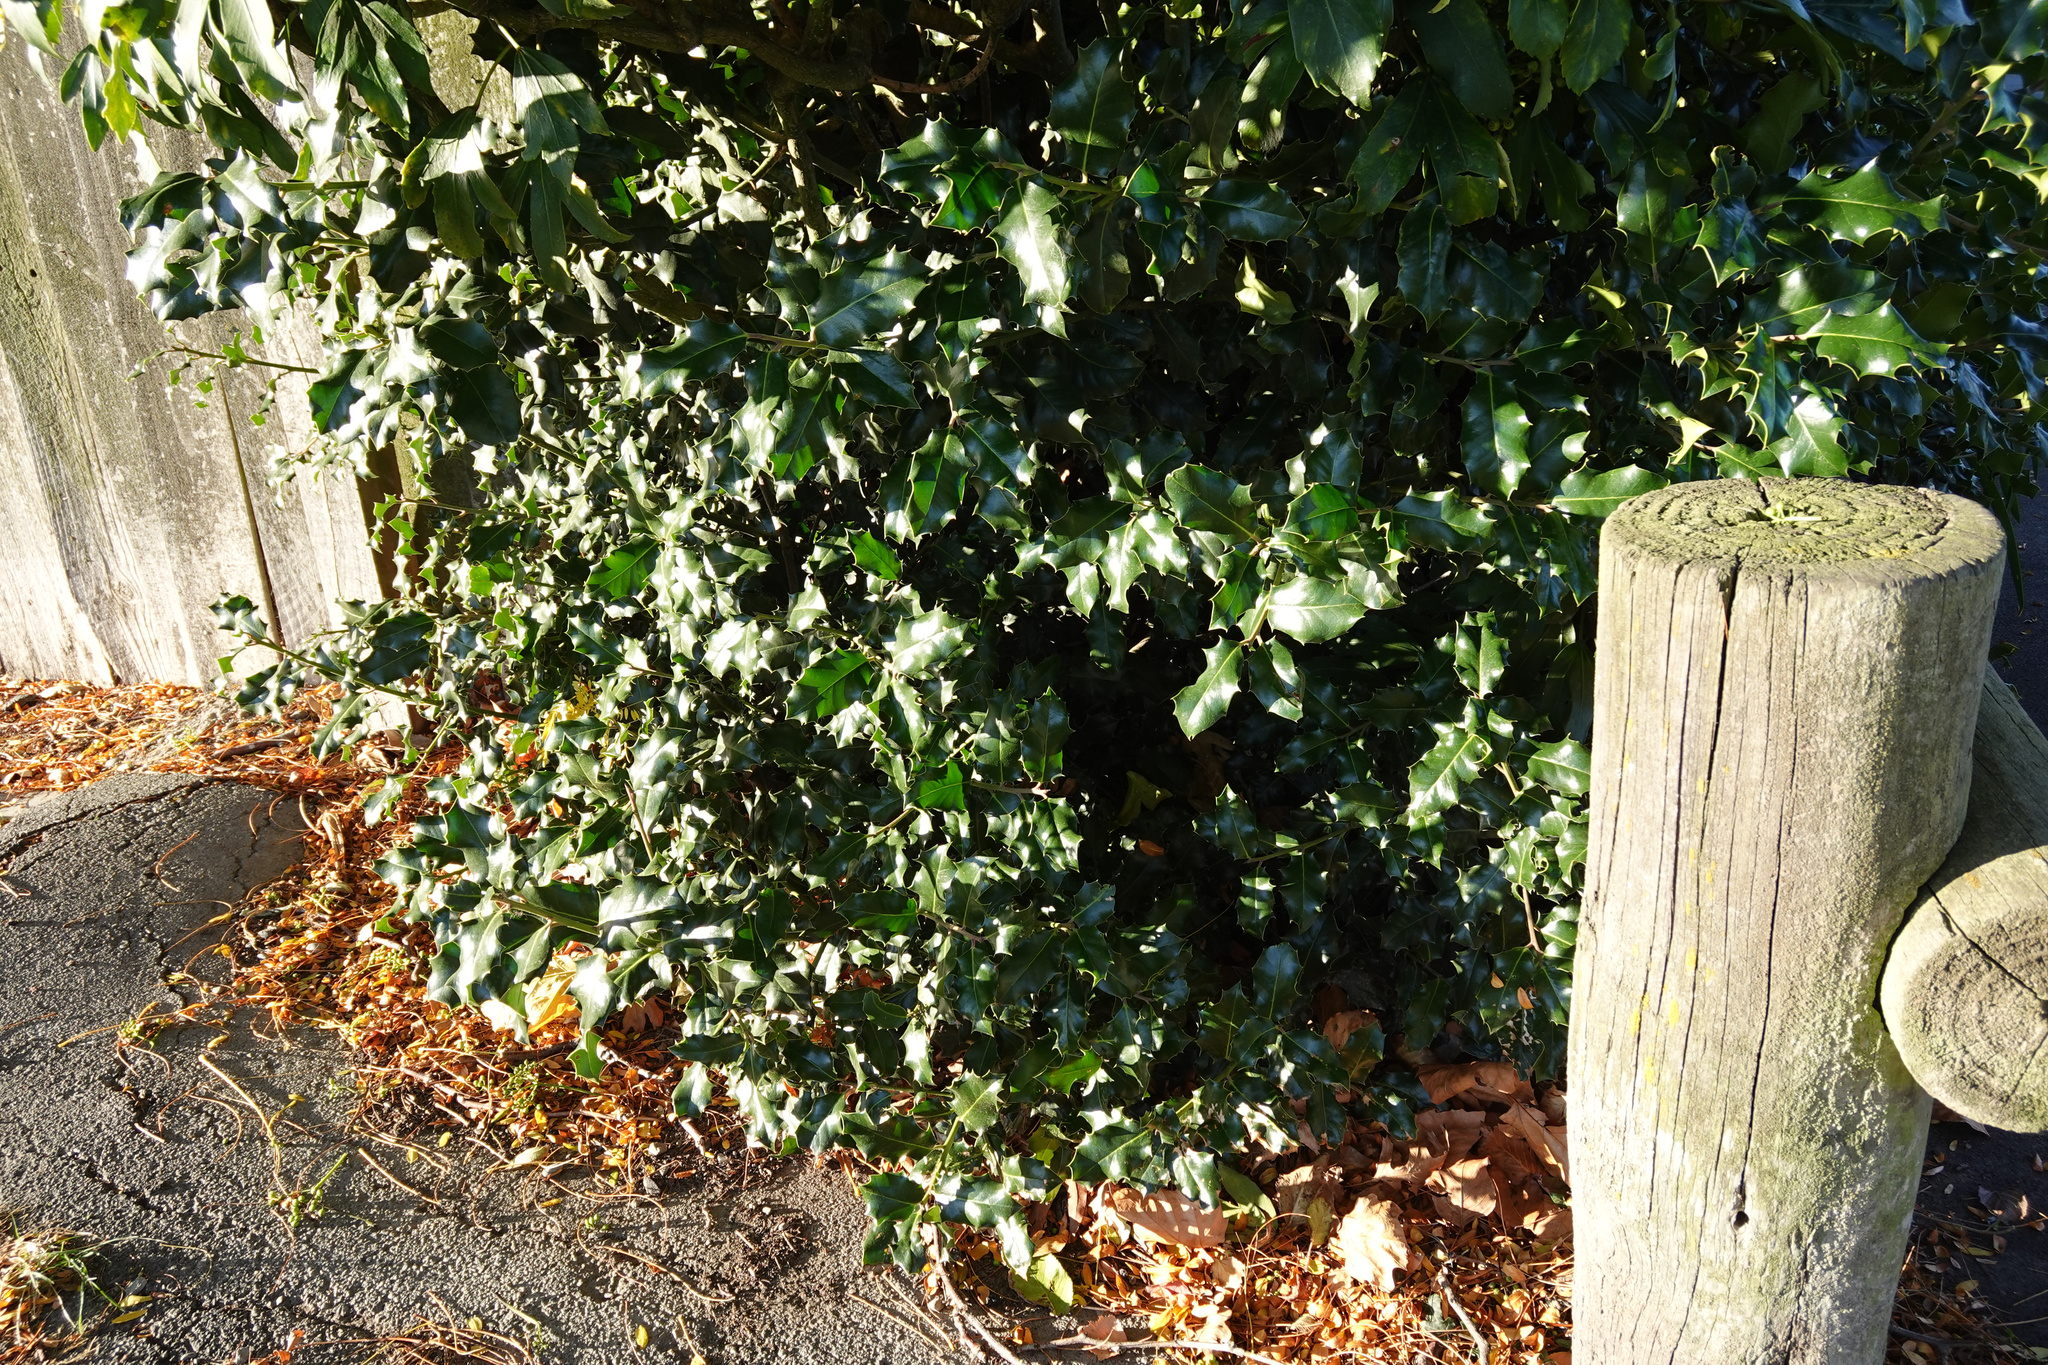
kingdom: Plantae
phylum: Tracheophyta
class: Magnoliopsida
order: Aquifoliales
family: Aquifoliaceae
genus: Ilex
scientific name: Ilex aquifolium
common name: English holly
